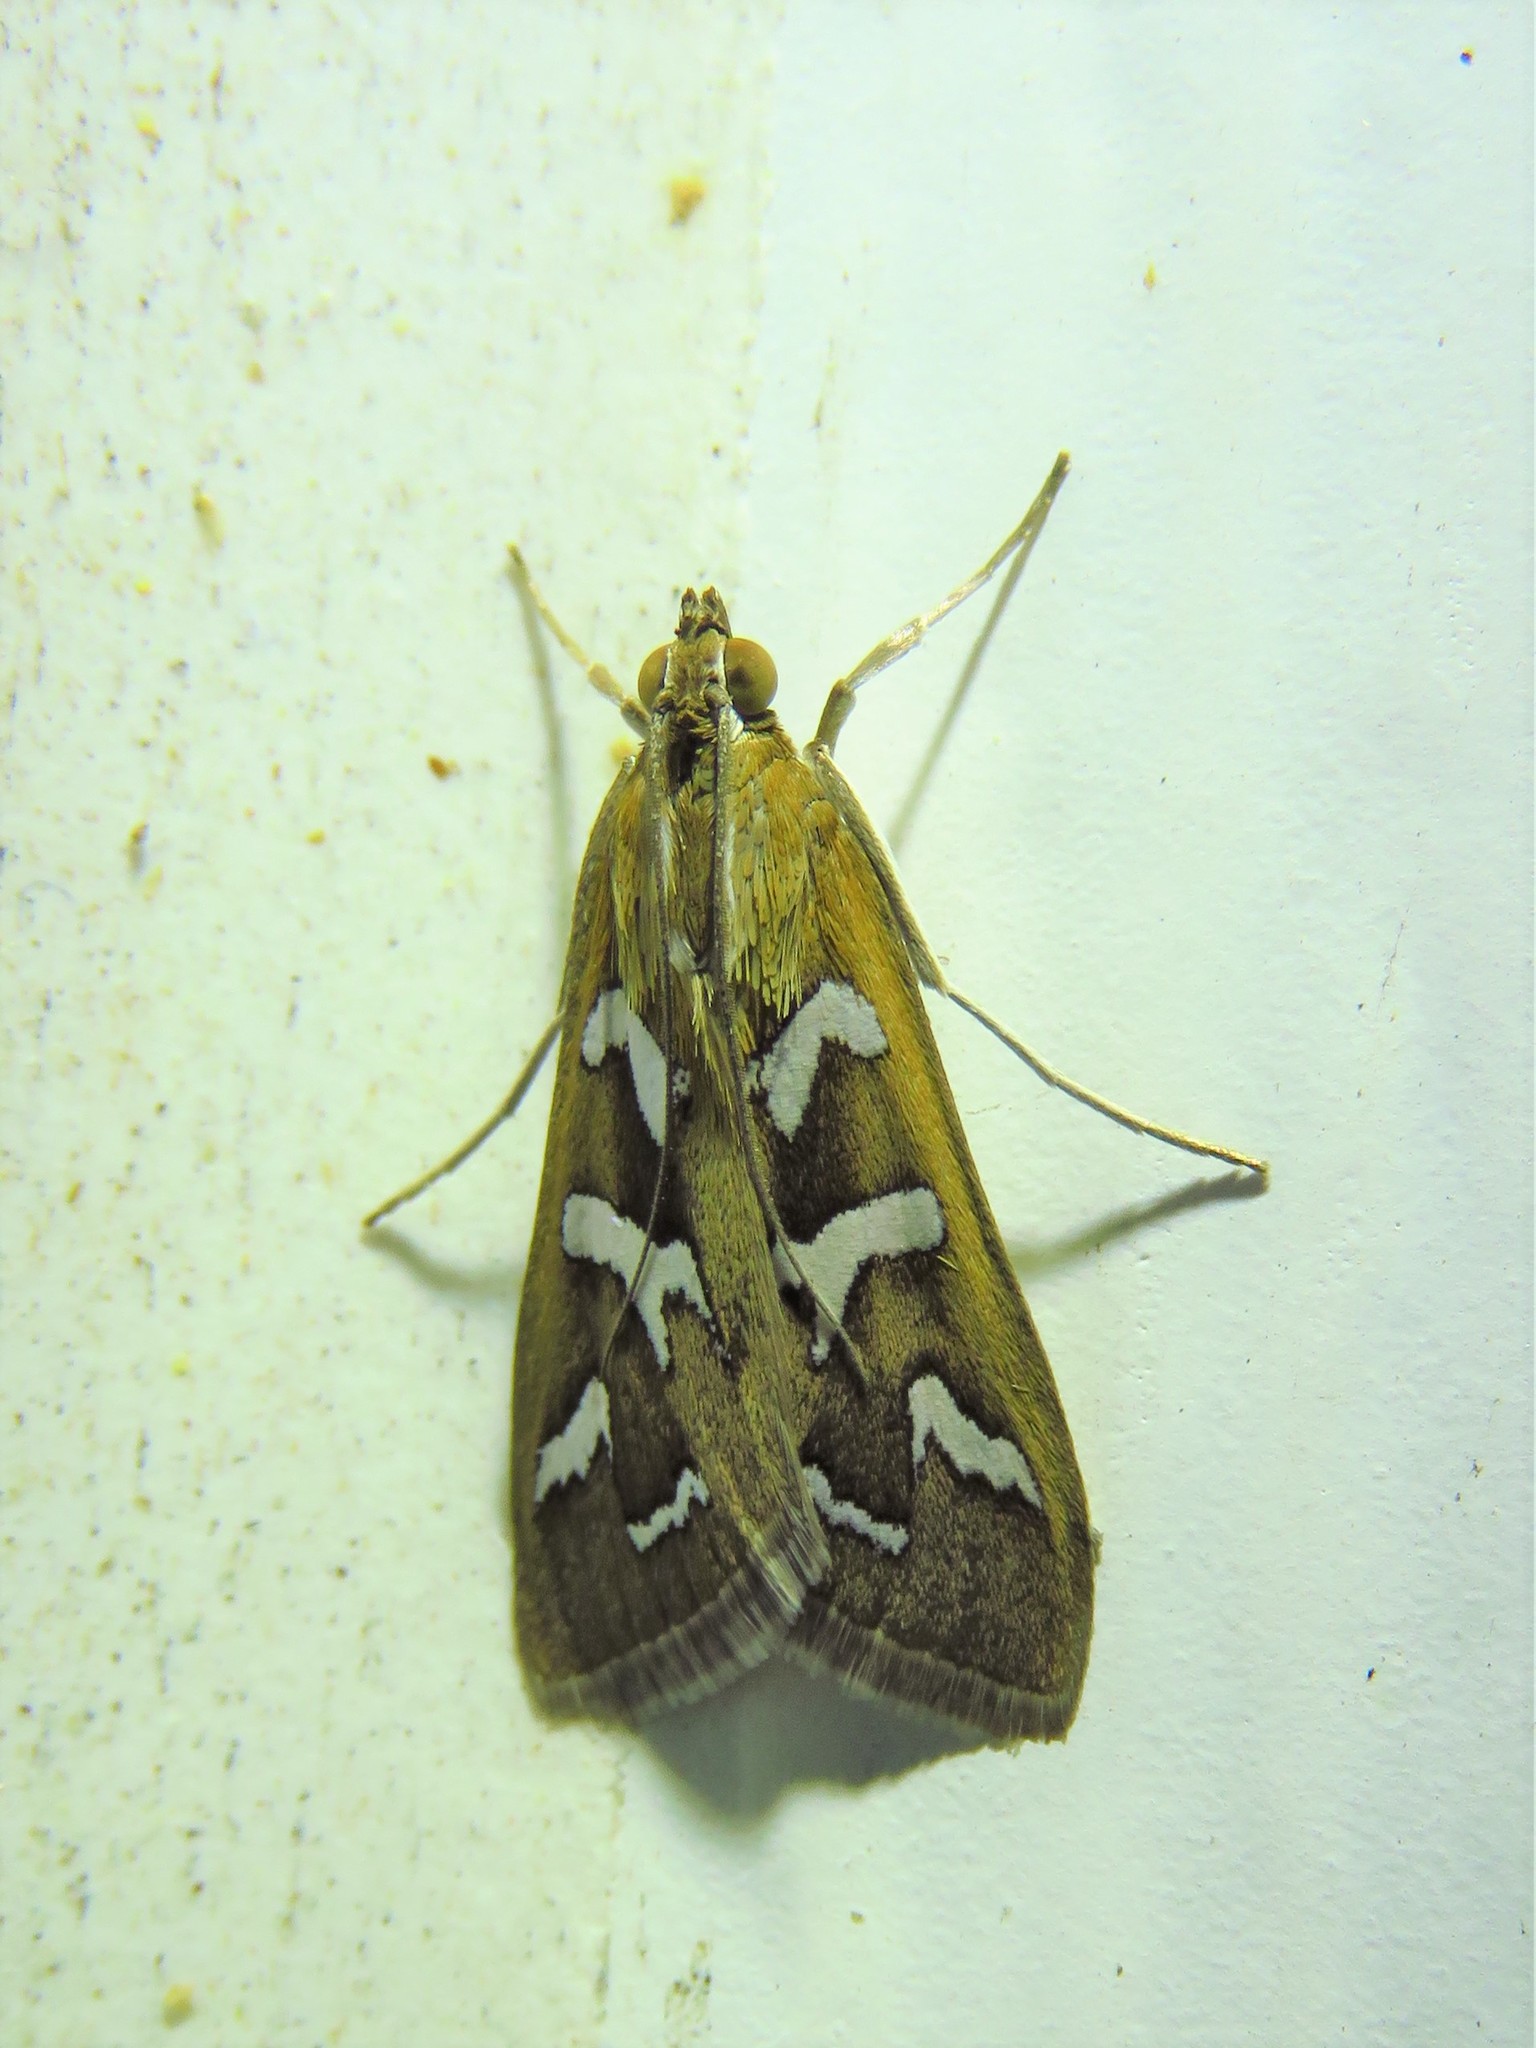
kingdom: Animalia
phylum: Arthropoda
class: Insecta
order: Lepidoptera
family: Crambidae
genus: Diastictis
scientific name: Diastictis fracturalis
